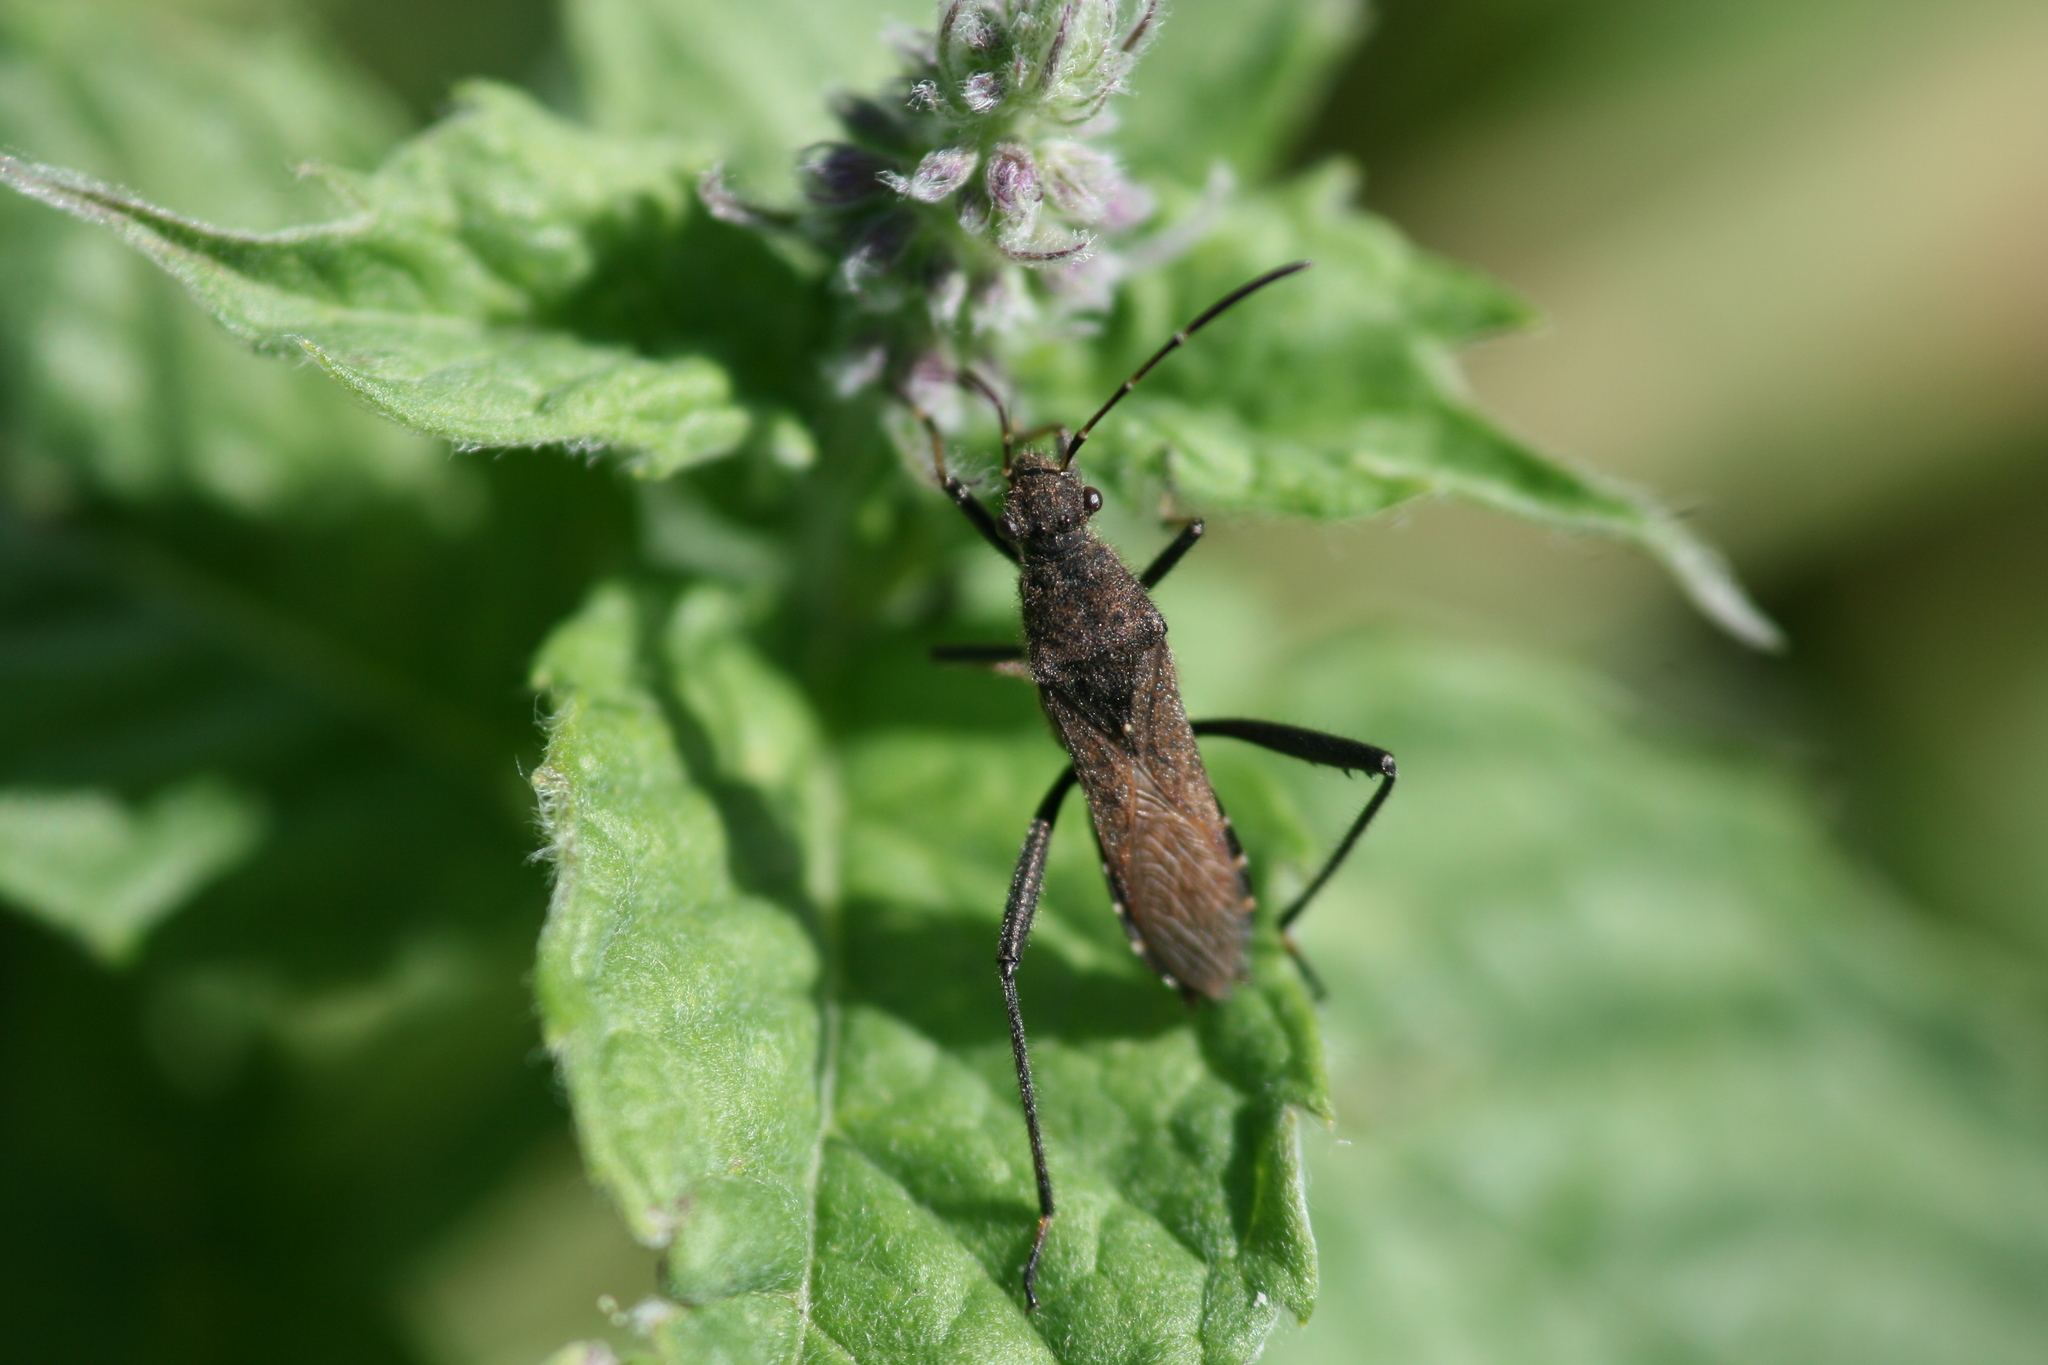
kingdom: Animalia
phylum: Arthropoda
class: Insecta
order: Hemiptera
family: Alydidae
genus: Alydus
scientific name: Alydus calcaratus
